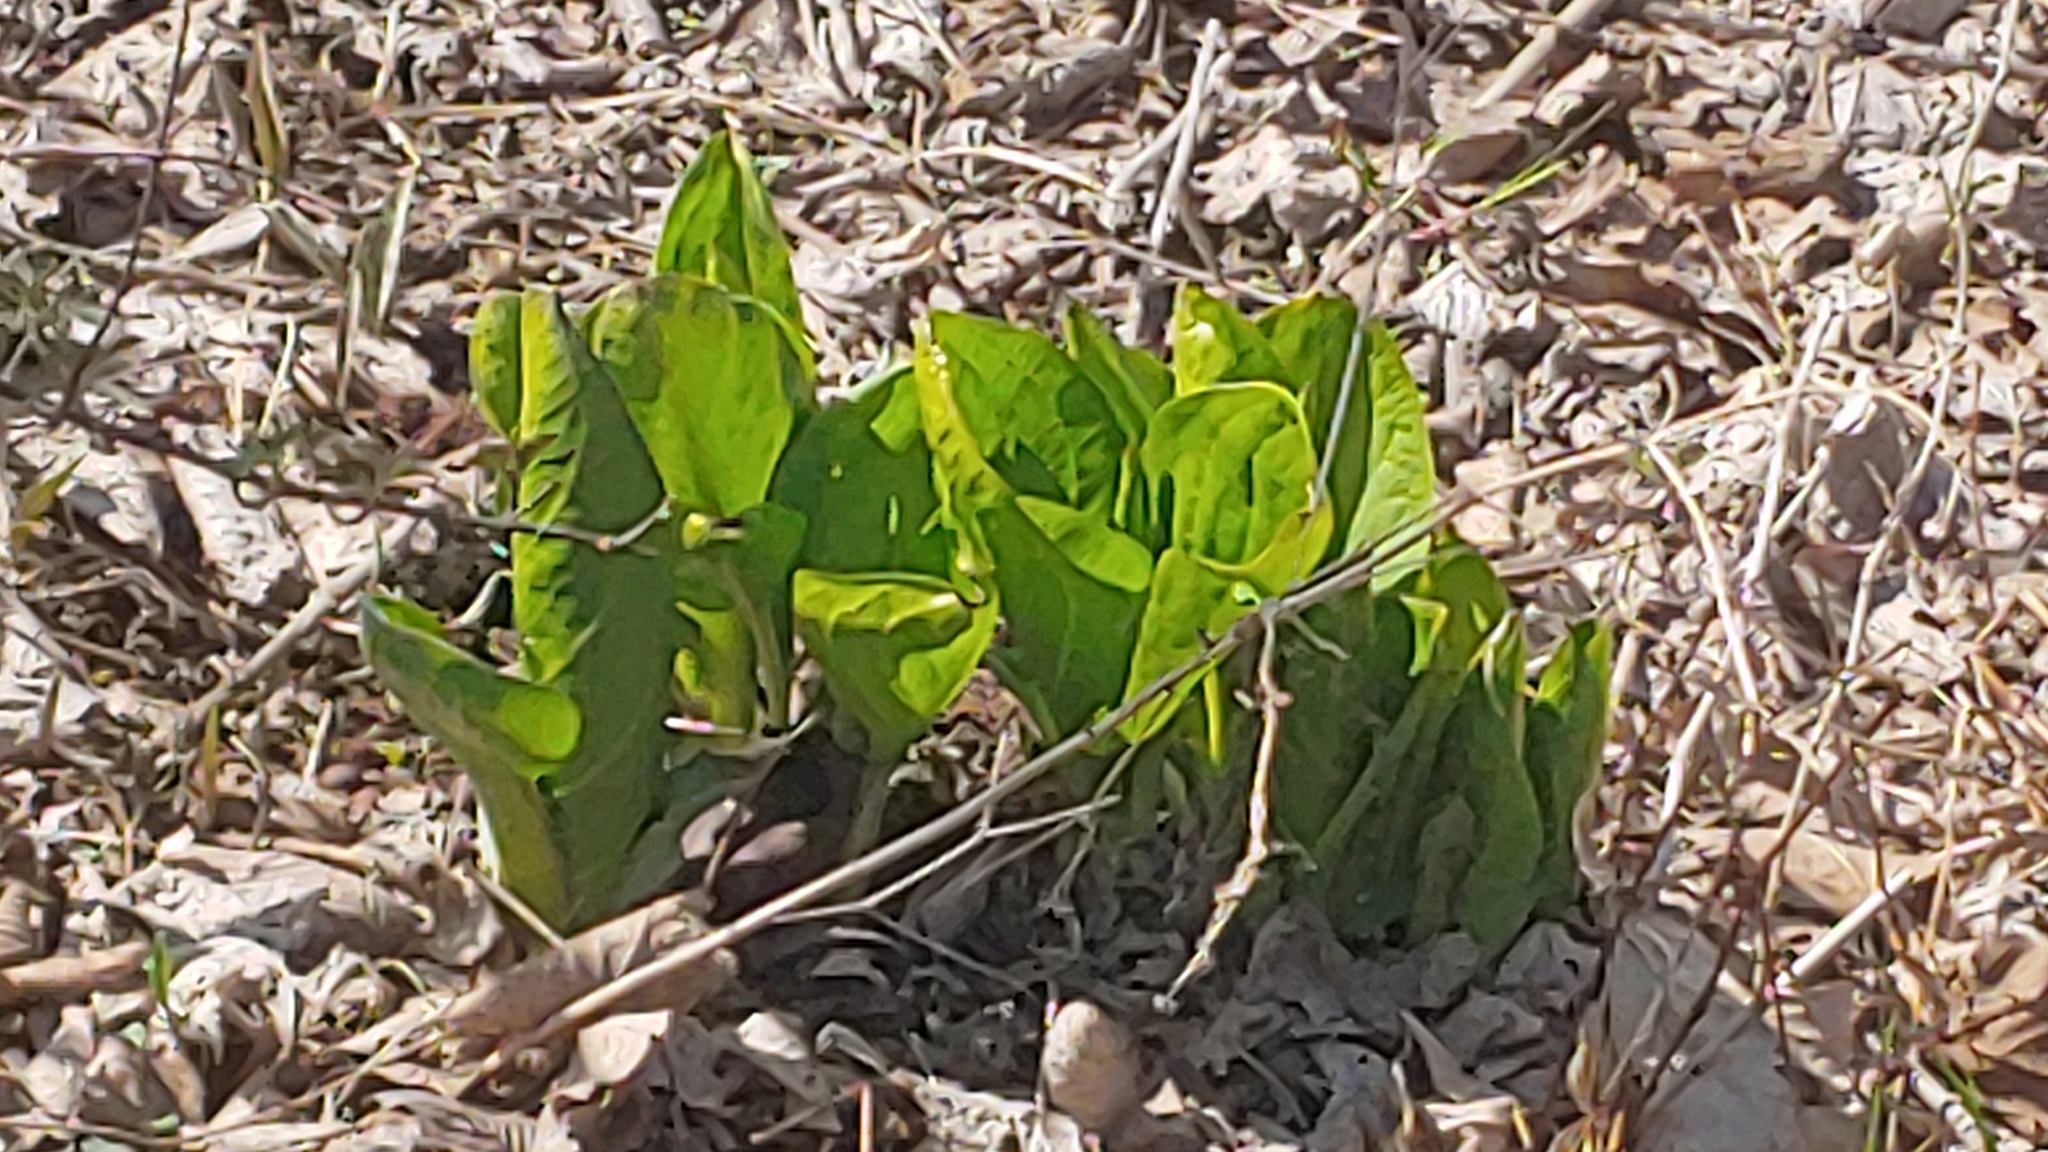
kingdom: Plantae
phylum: Tracheophyta
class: Liliopsida
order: Alismatales
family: Araceae
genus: Symplocarpus
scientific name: Symplocarpus foetidus
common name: Eastern skunk cabbage
